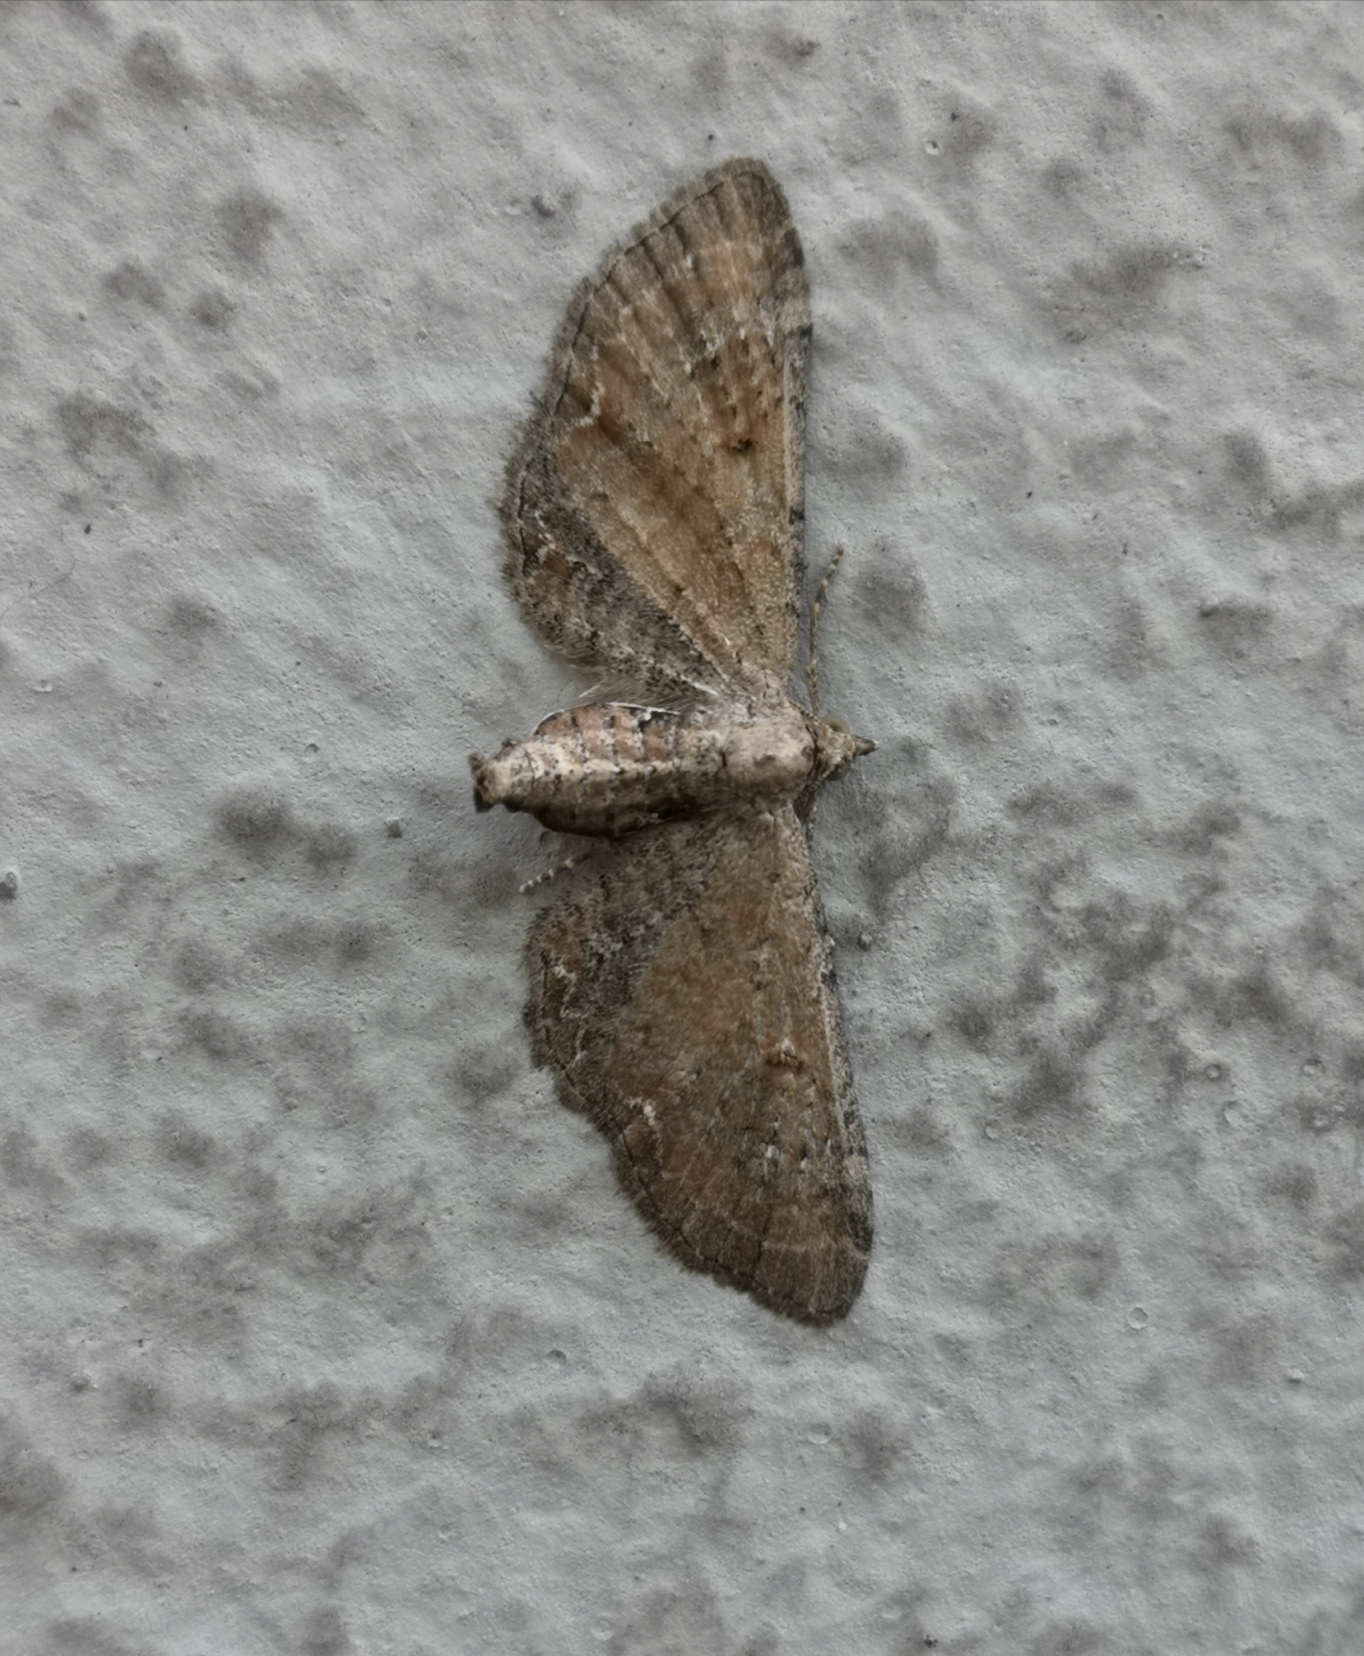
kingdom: Animalia
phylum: Arthropoda
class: Insecta
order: Lepidoptera
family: Geometridae
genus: Eupithecia
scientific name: Eupithecia simpliciata
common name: Plain pug
